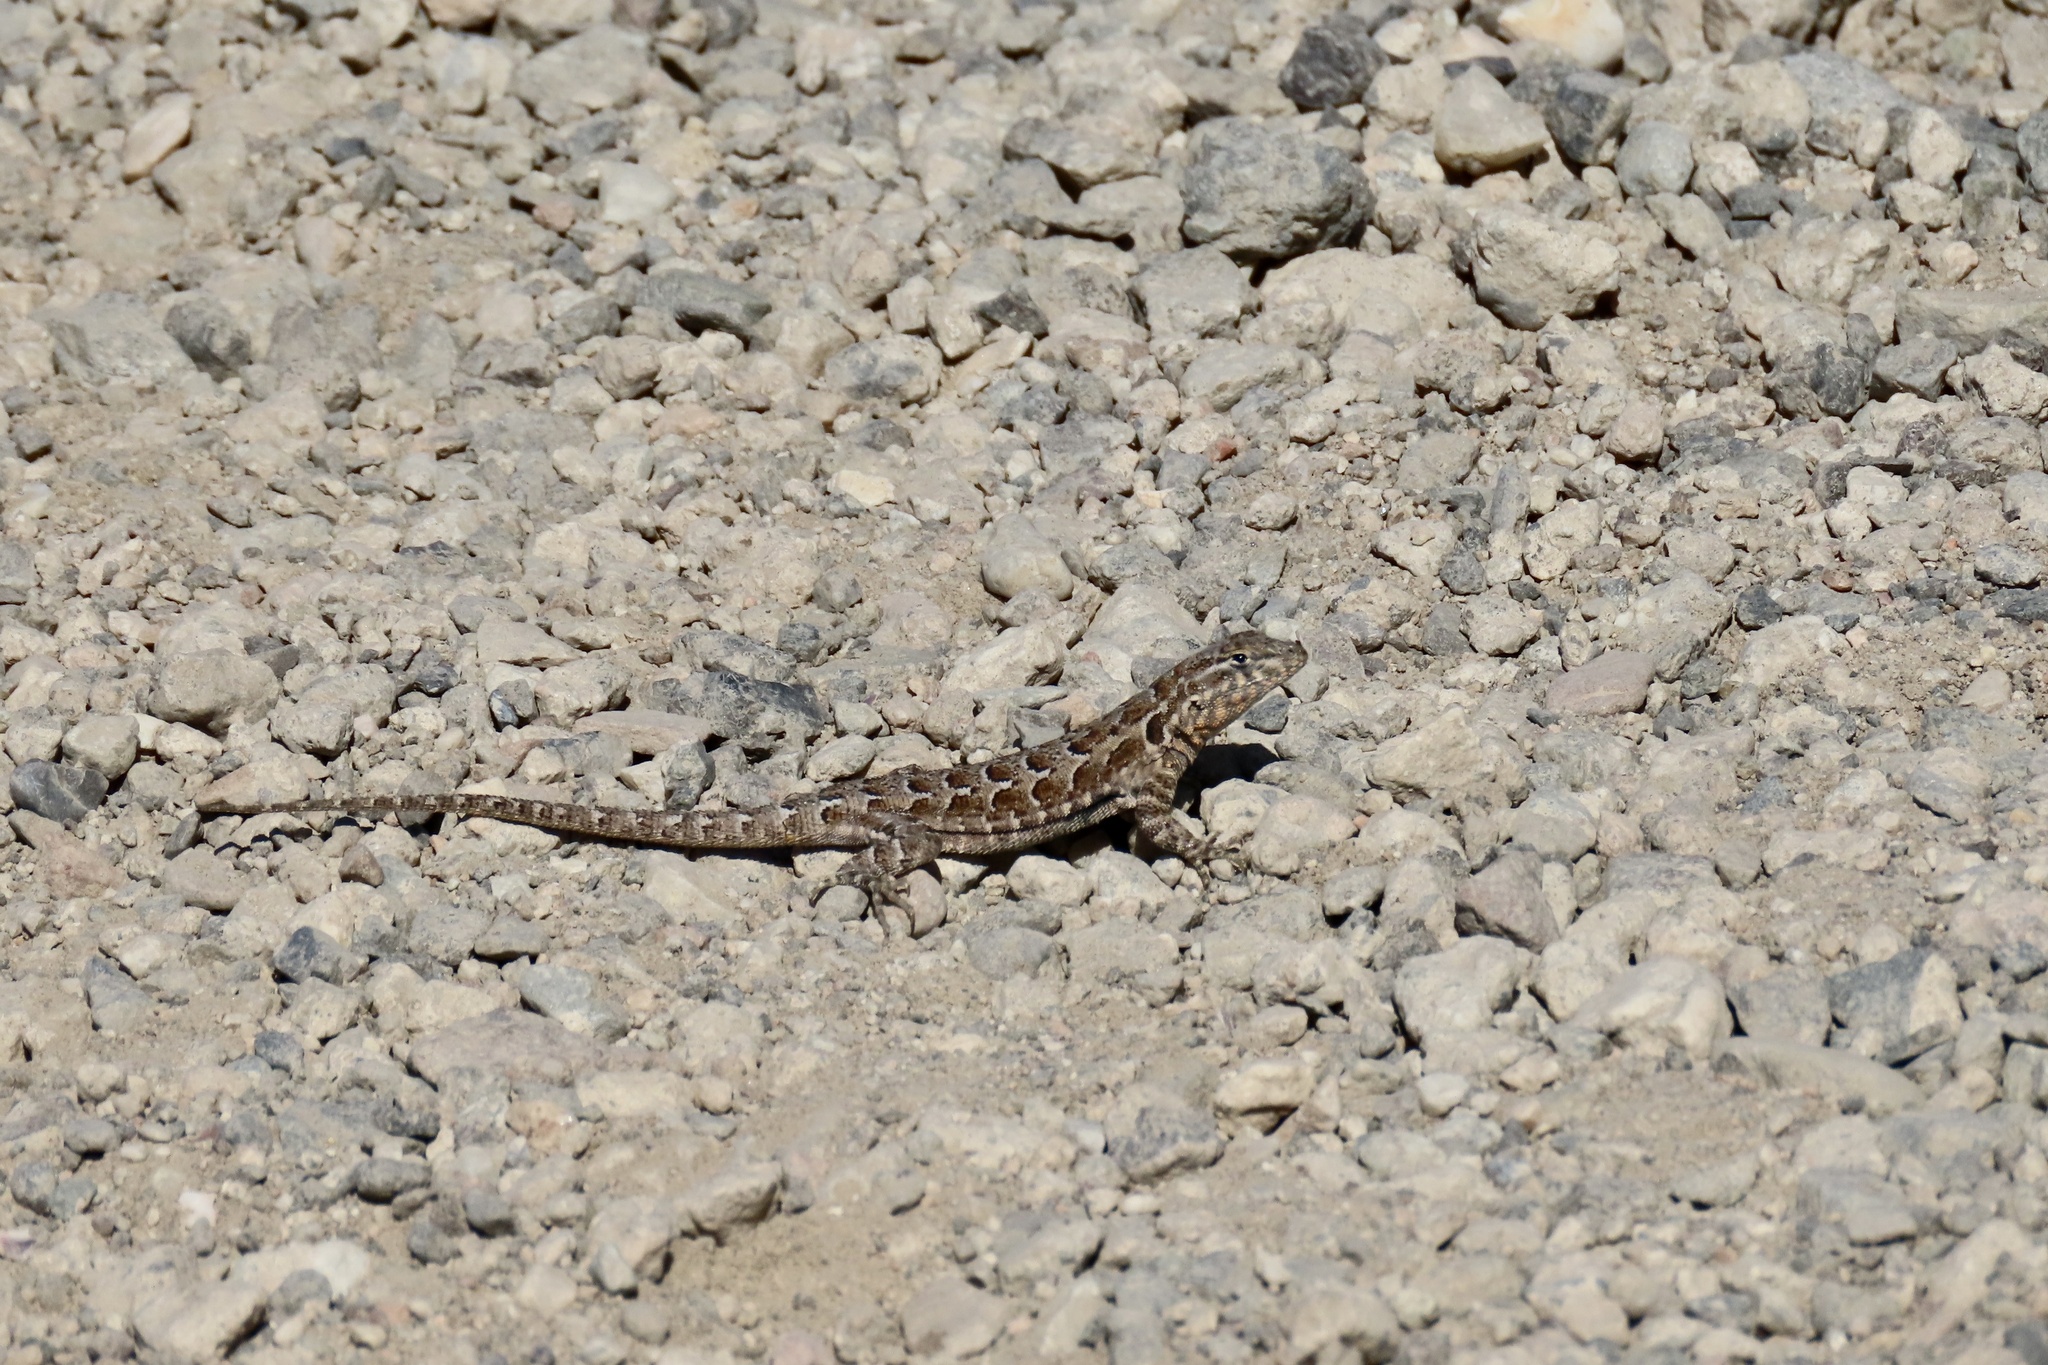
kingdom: Animalia
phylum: Chordata
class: Squamata
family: Phrynosomatidae
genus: Uta
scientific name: Uta stansburiana
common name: Side-blotched lizard
